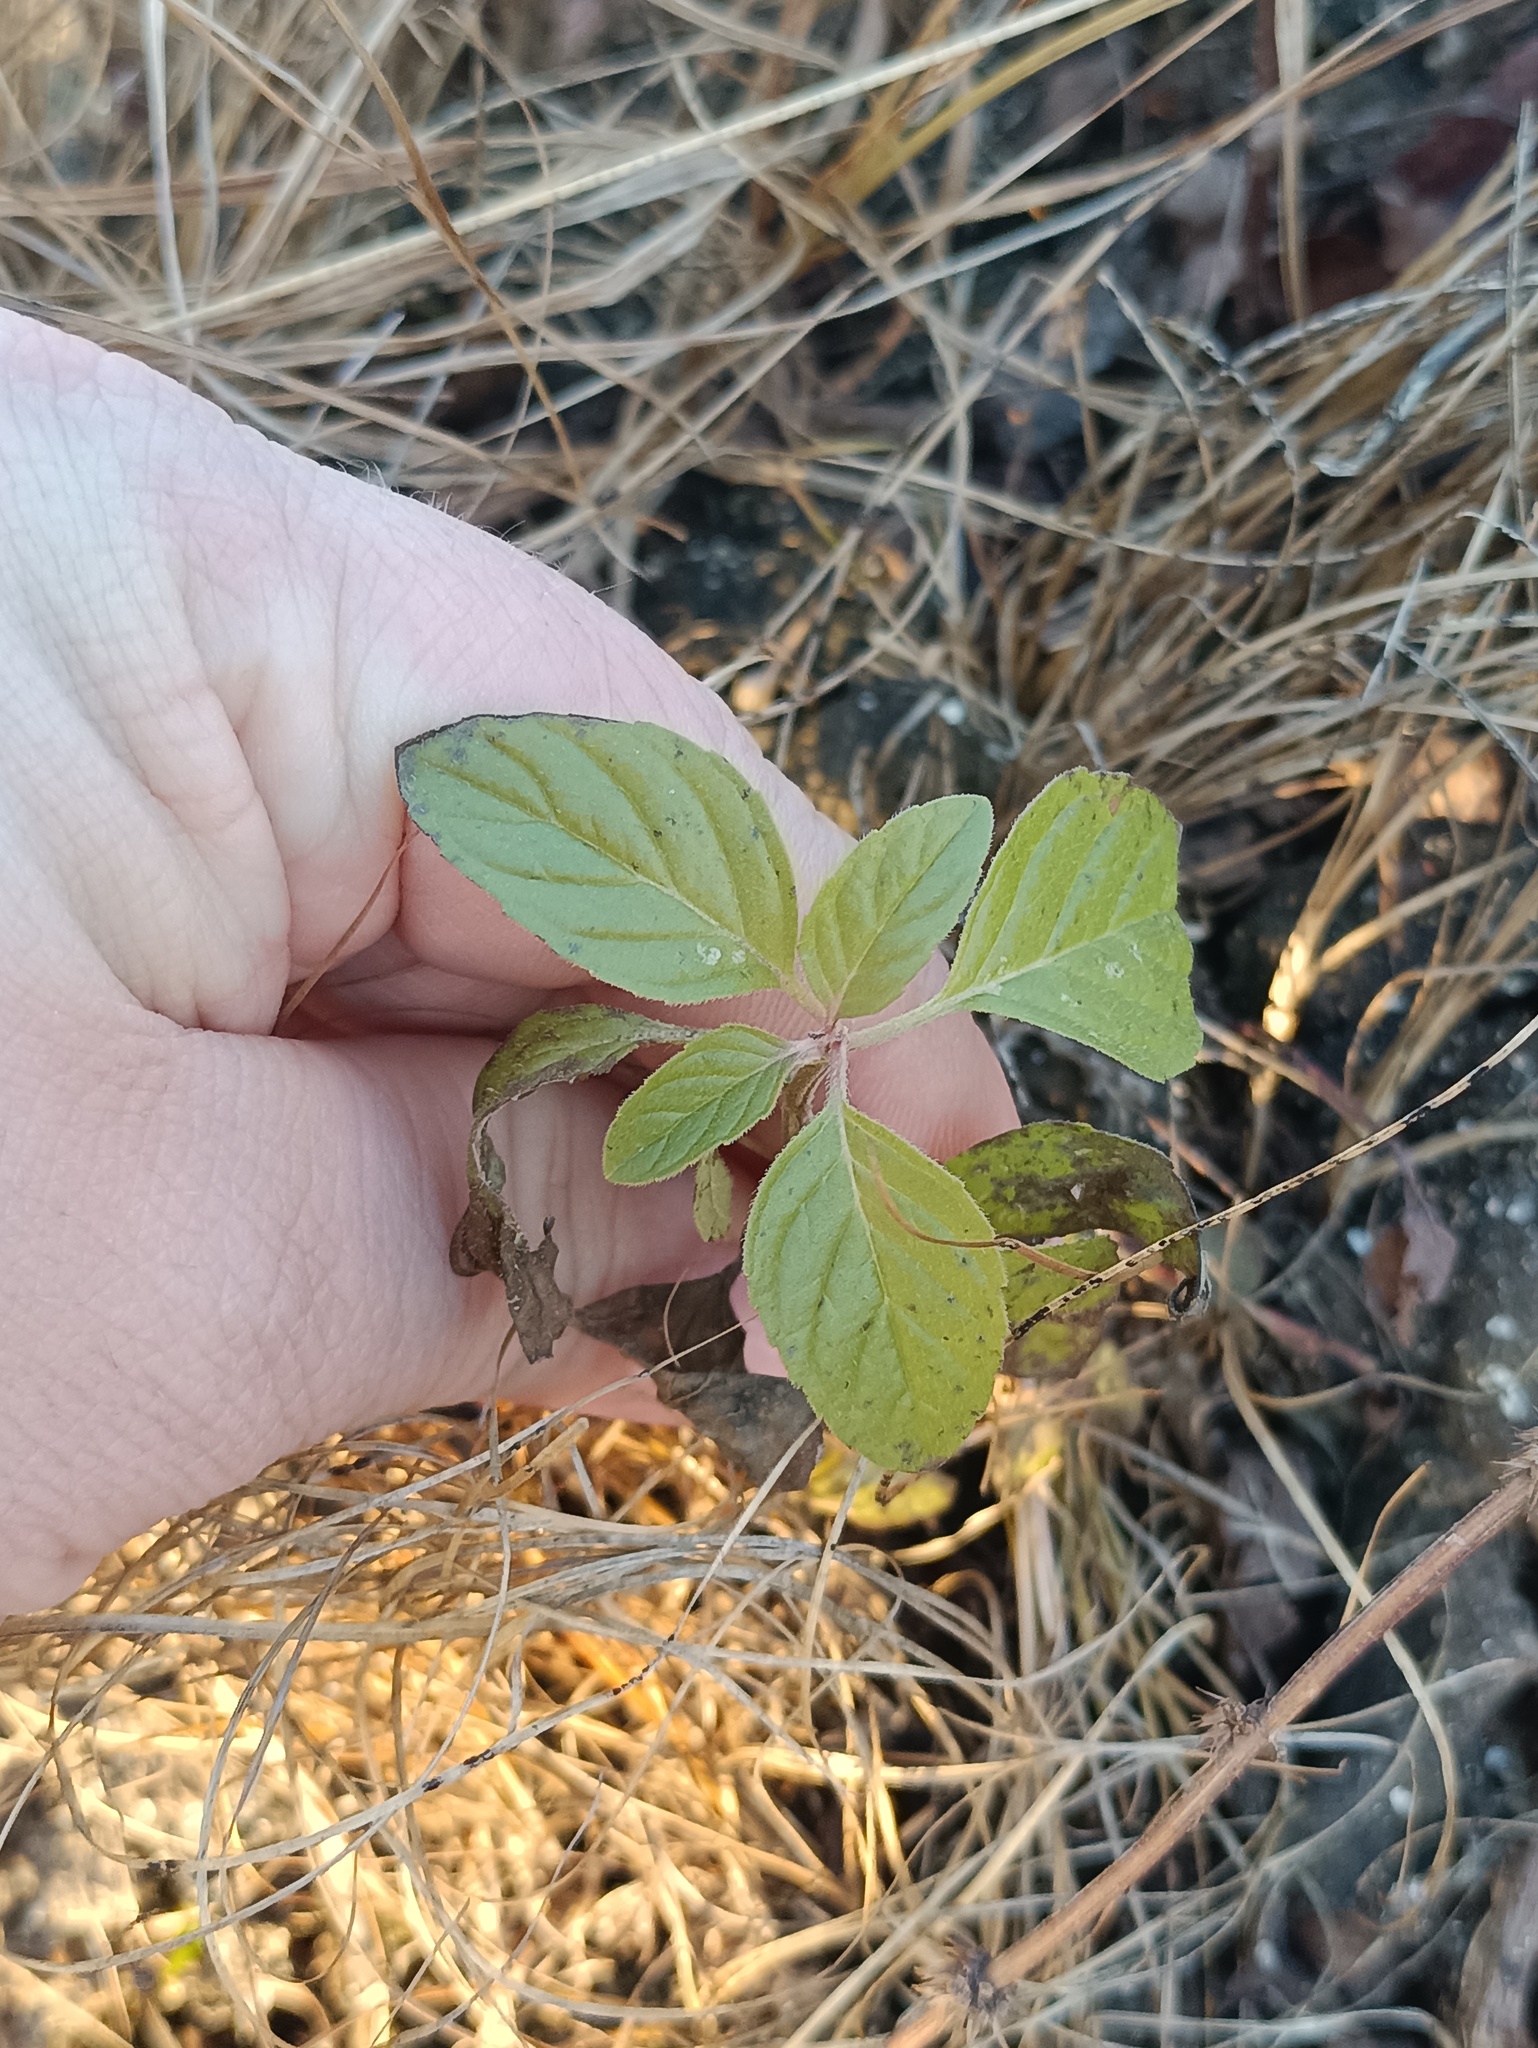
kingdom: Plantae
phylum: Tracheophyta
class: Magnoliopsida
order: Lamiales
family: Lamiaceae
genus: Mentha
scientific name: Mentha arvensis
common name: Corn mint
